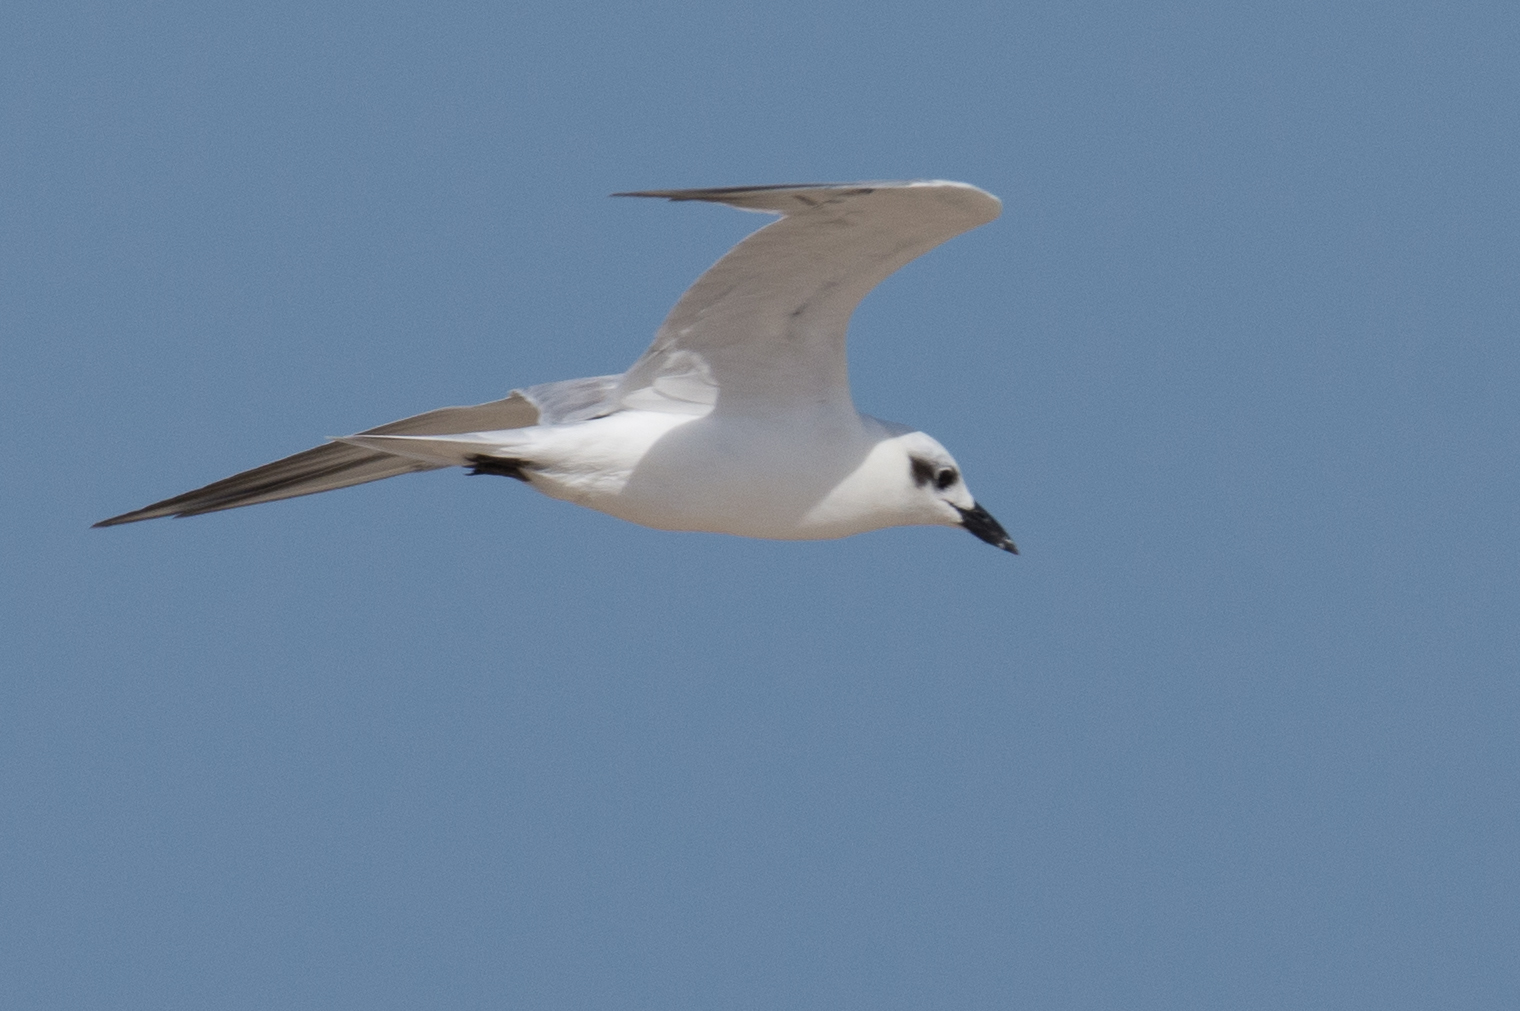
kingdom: Animalia
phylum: Chordata
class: Aves
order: Charadriiformes
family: Laridae
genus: Gelochelidon
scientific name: Gelochelidon nilotica
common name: Gull-billed tern
